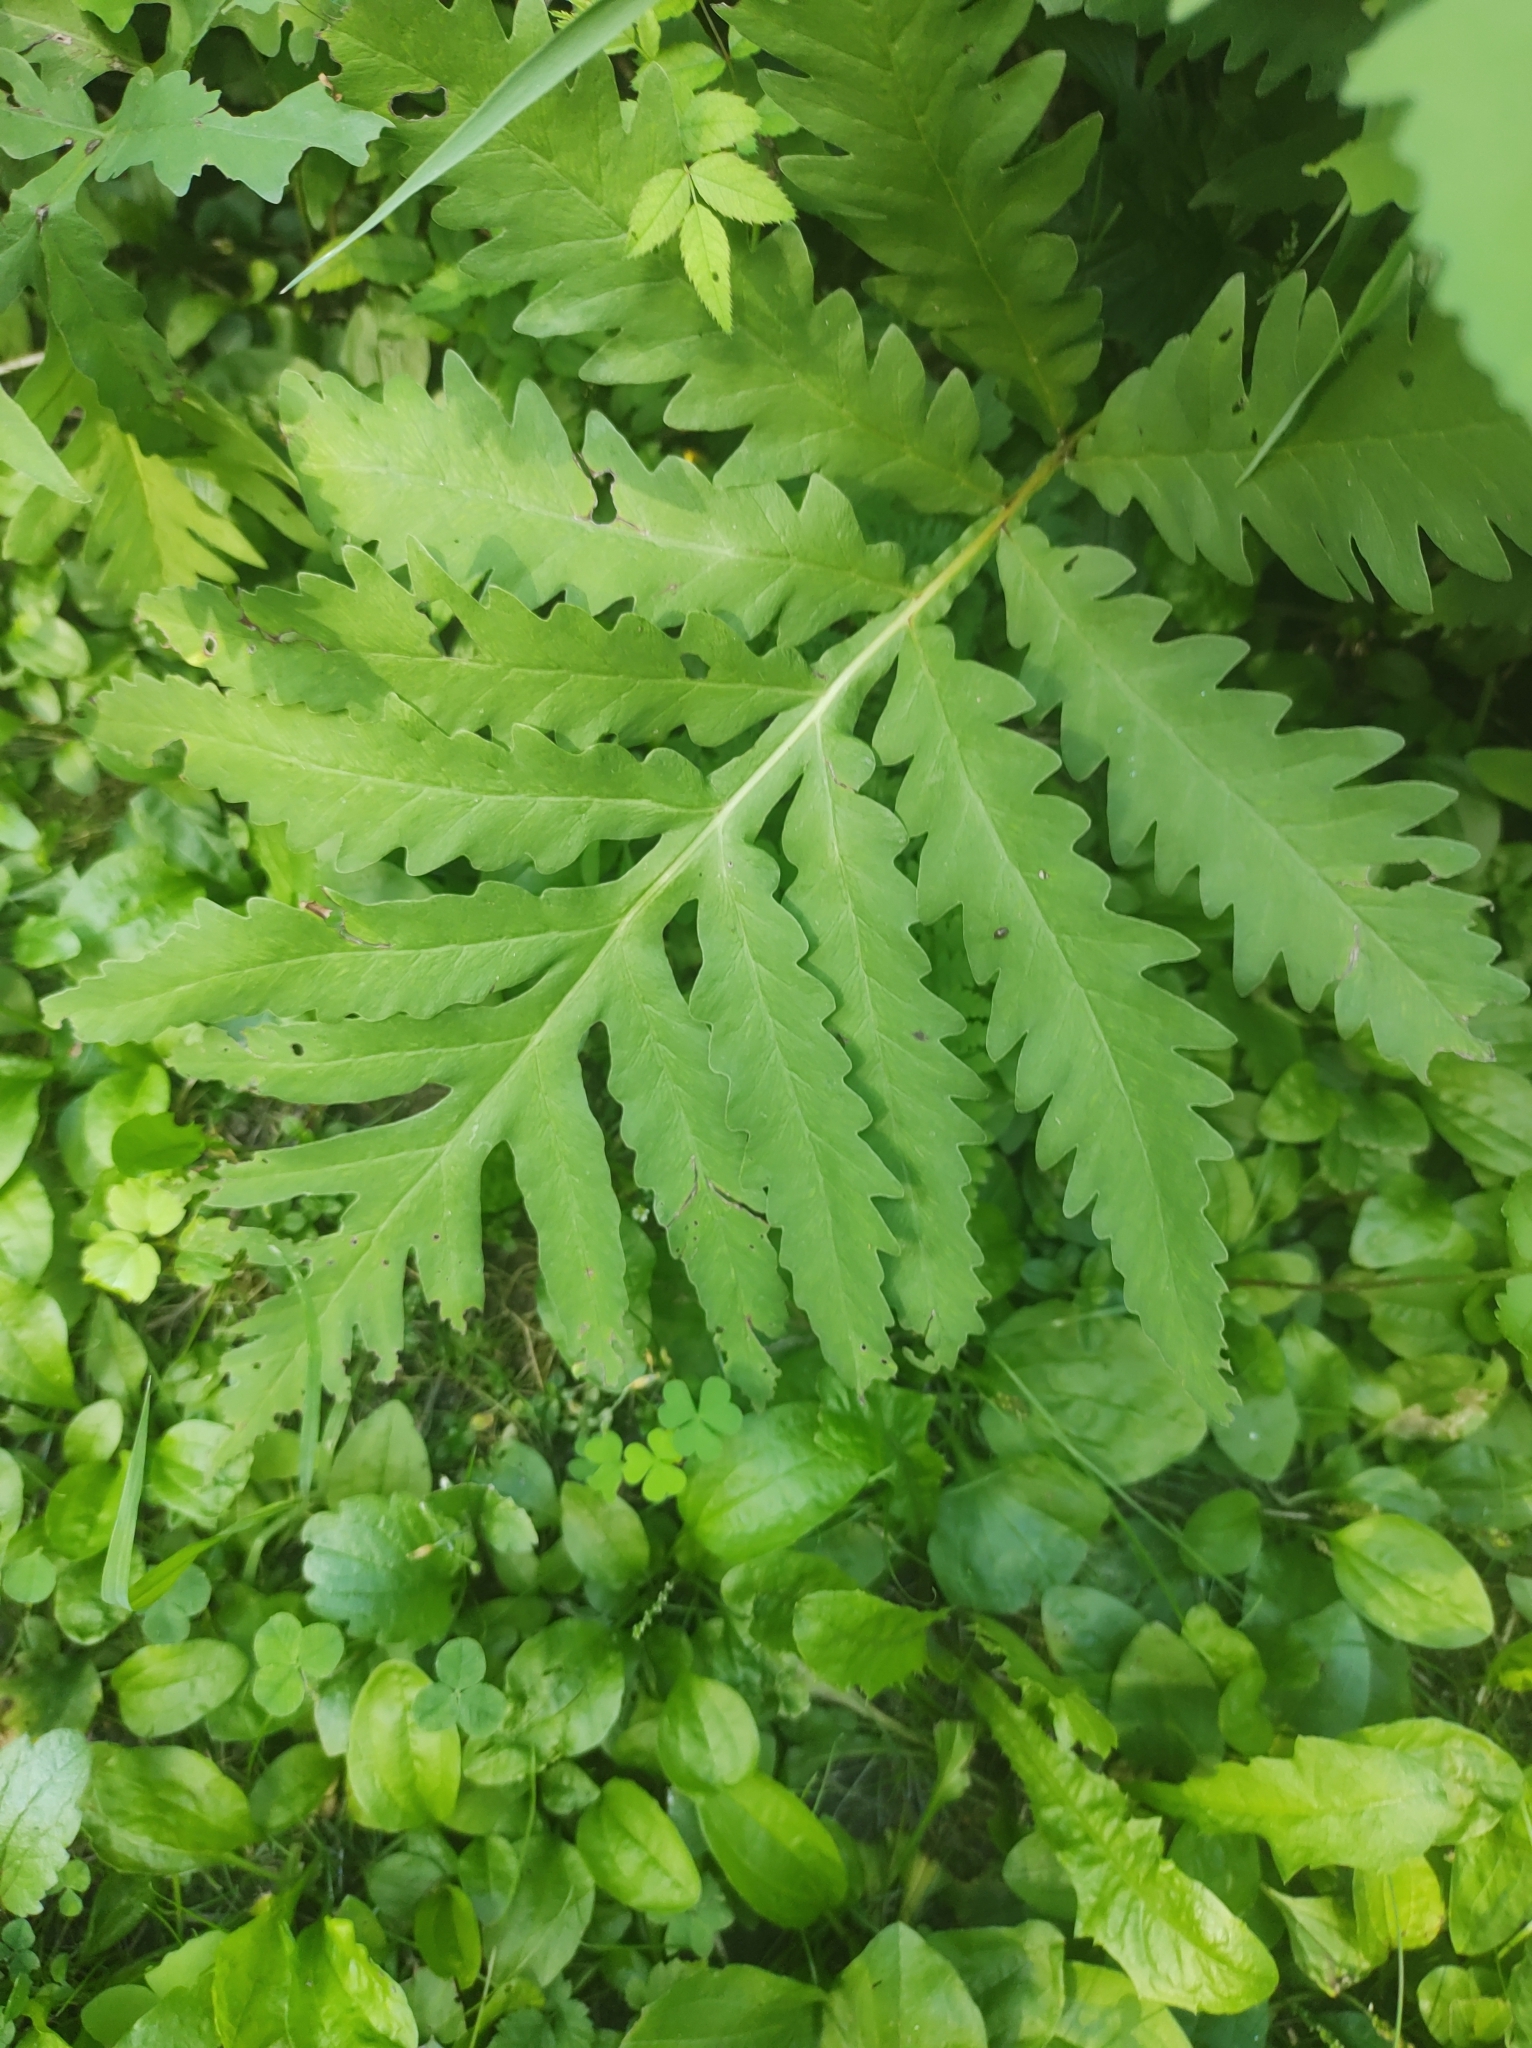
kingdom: Plantae
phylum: Tracheophyta
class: Polypodiopsida
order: Polypodiales
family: Onocleaceae
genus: Onoclea
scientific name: Onoclea sensibilis
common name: Sensitive fern
